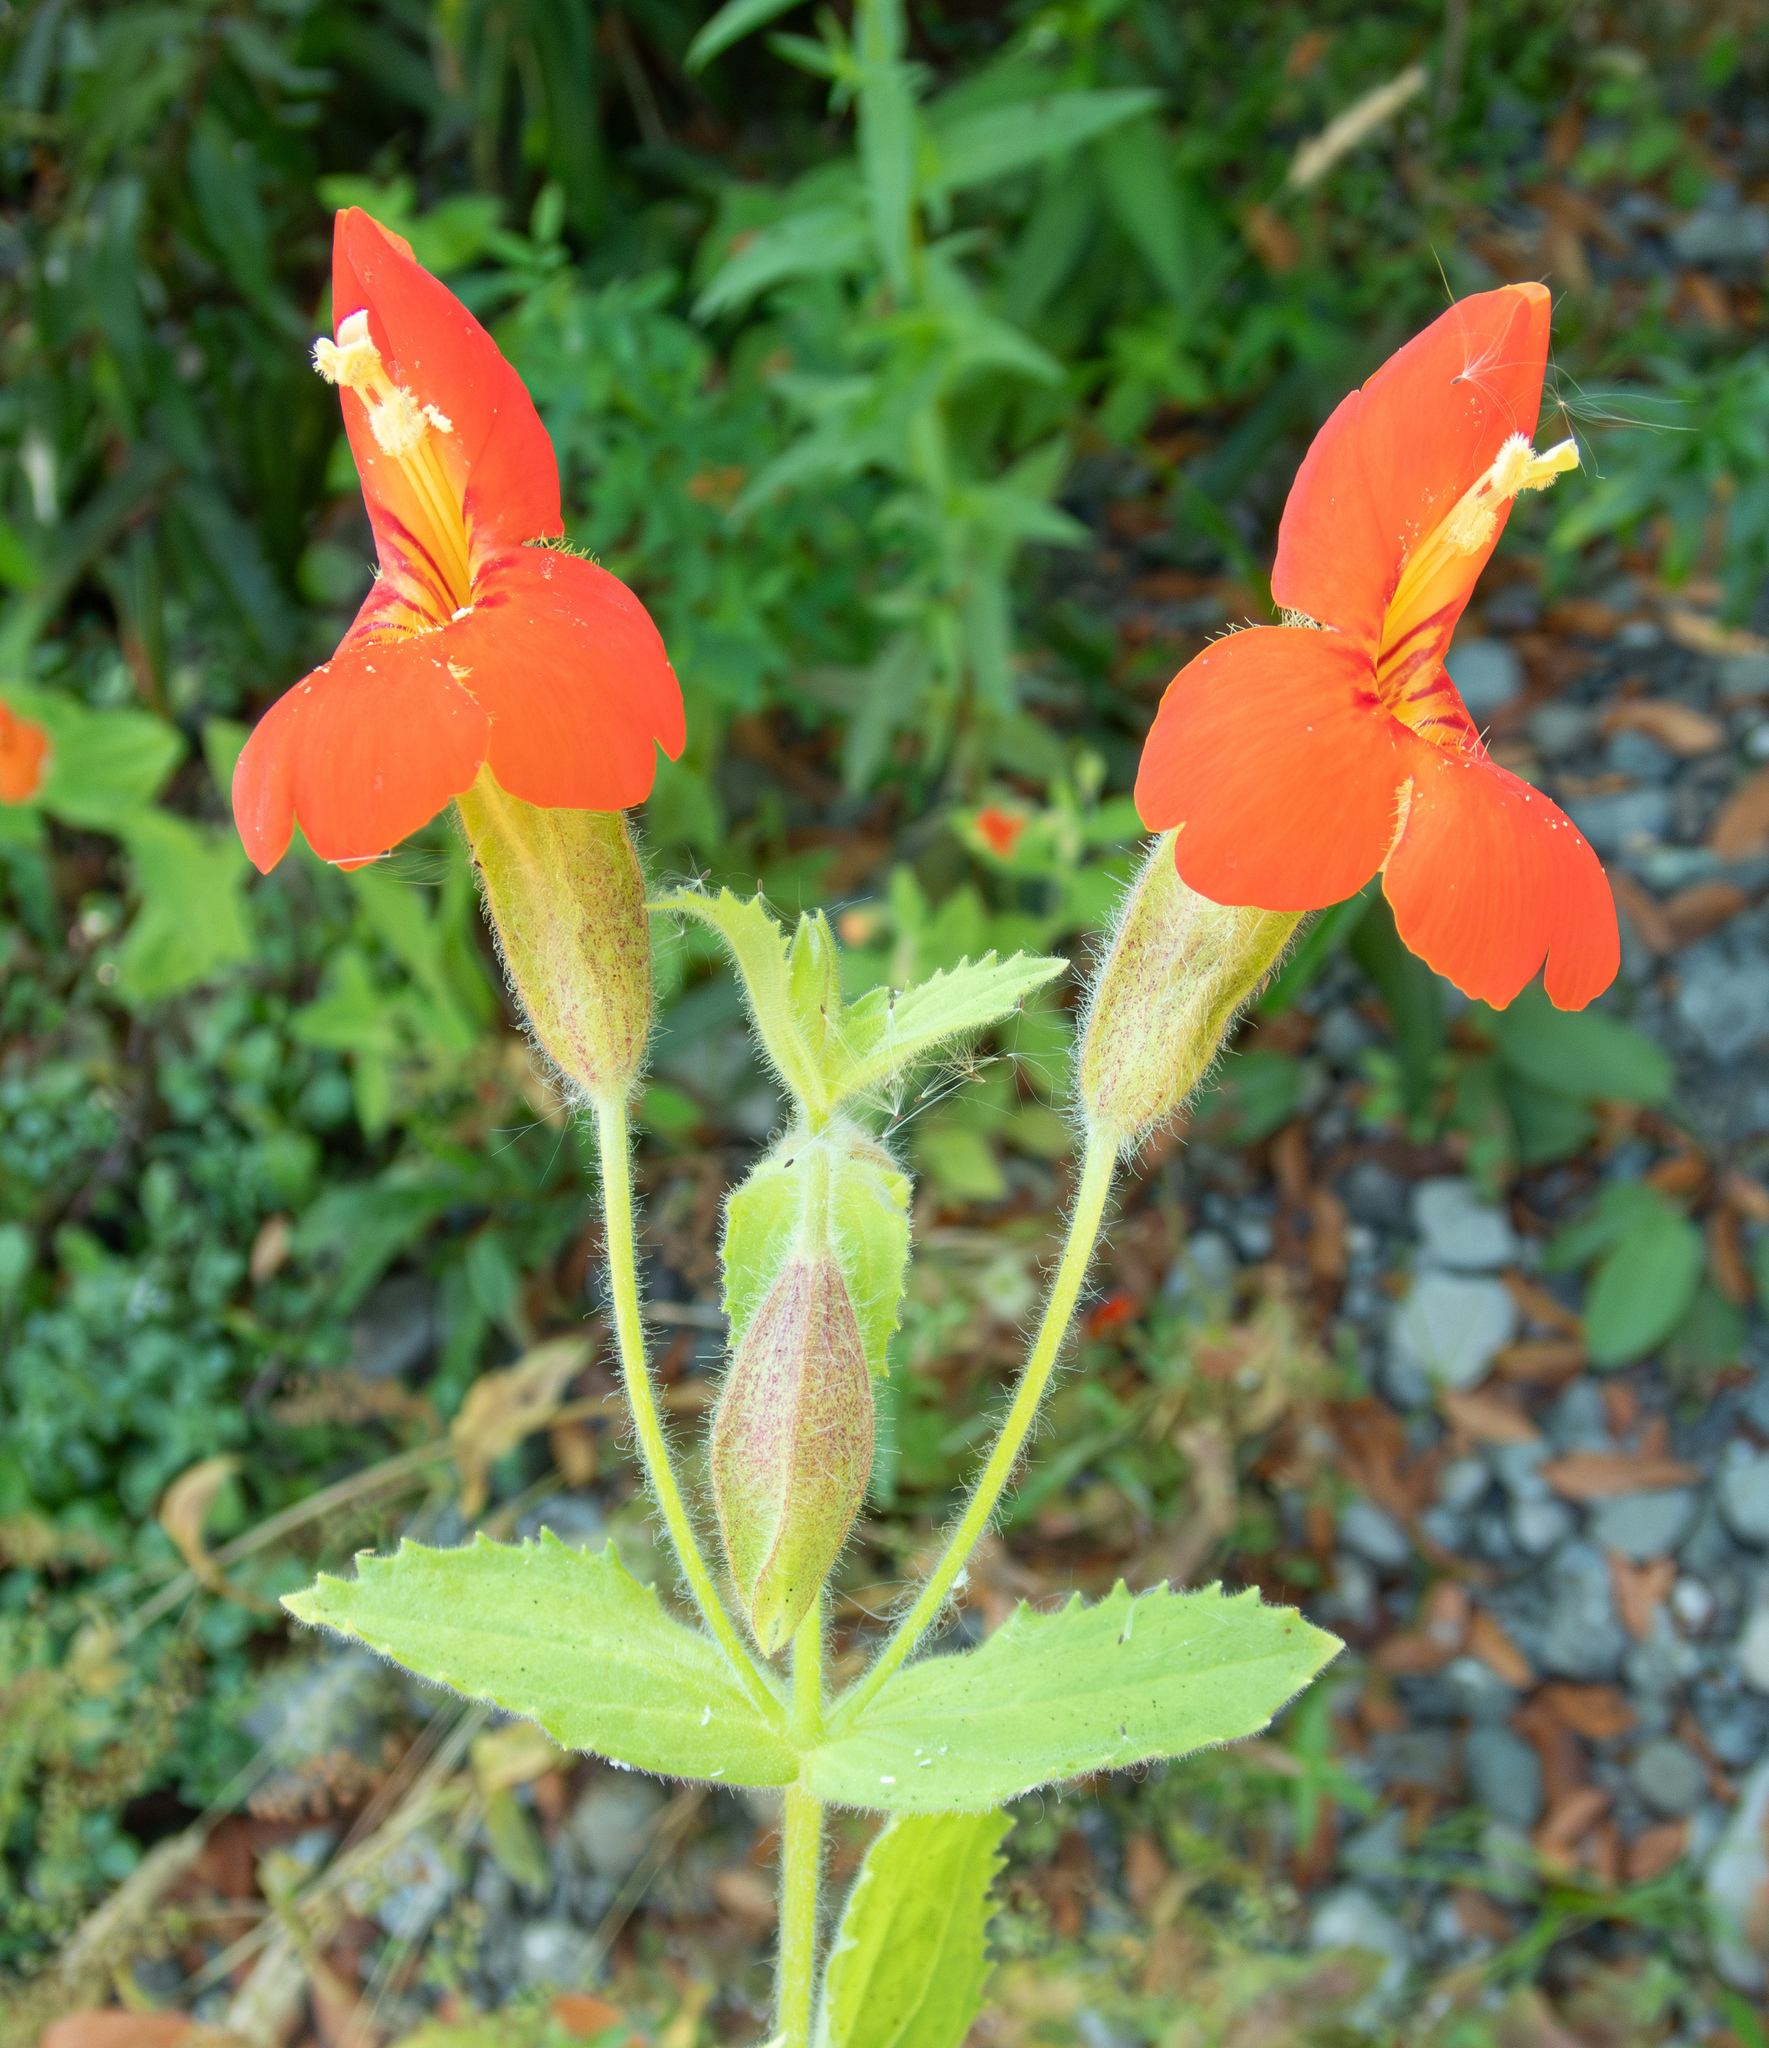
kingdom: Plantae
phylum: Tracheophyta
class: Magnoliopsida
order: Lamiales
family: Phrymaceae
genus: Erythranthe
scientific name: Erythranthe cardinalis
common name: Scarlet monkey-flower
